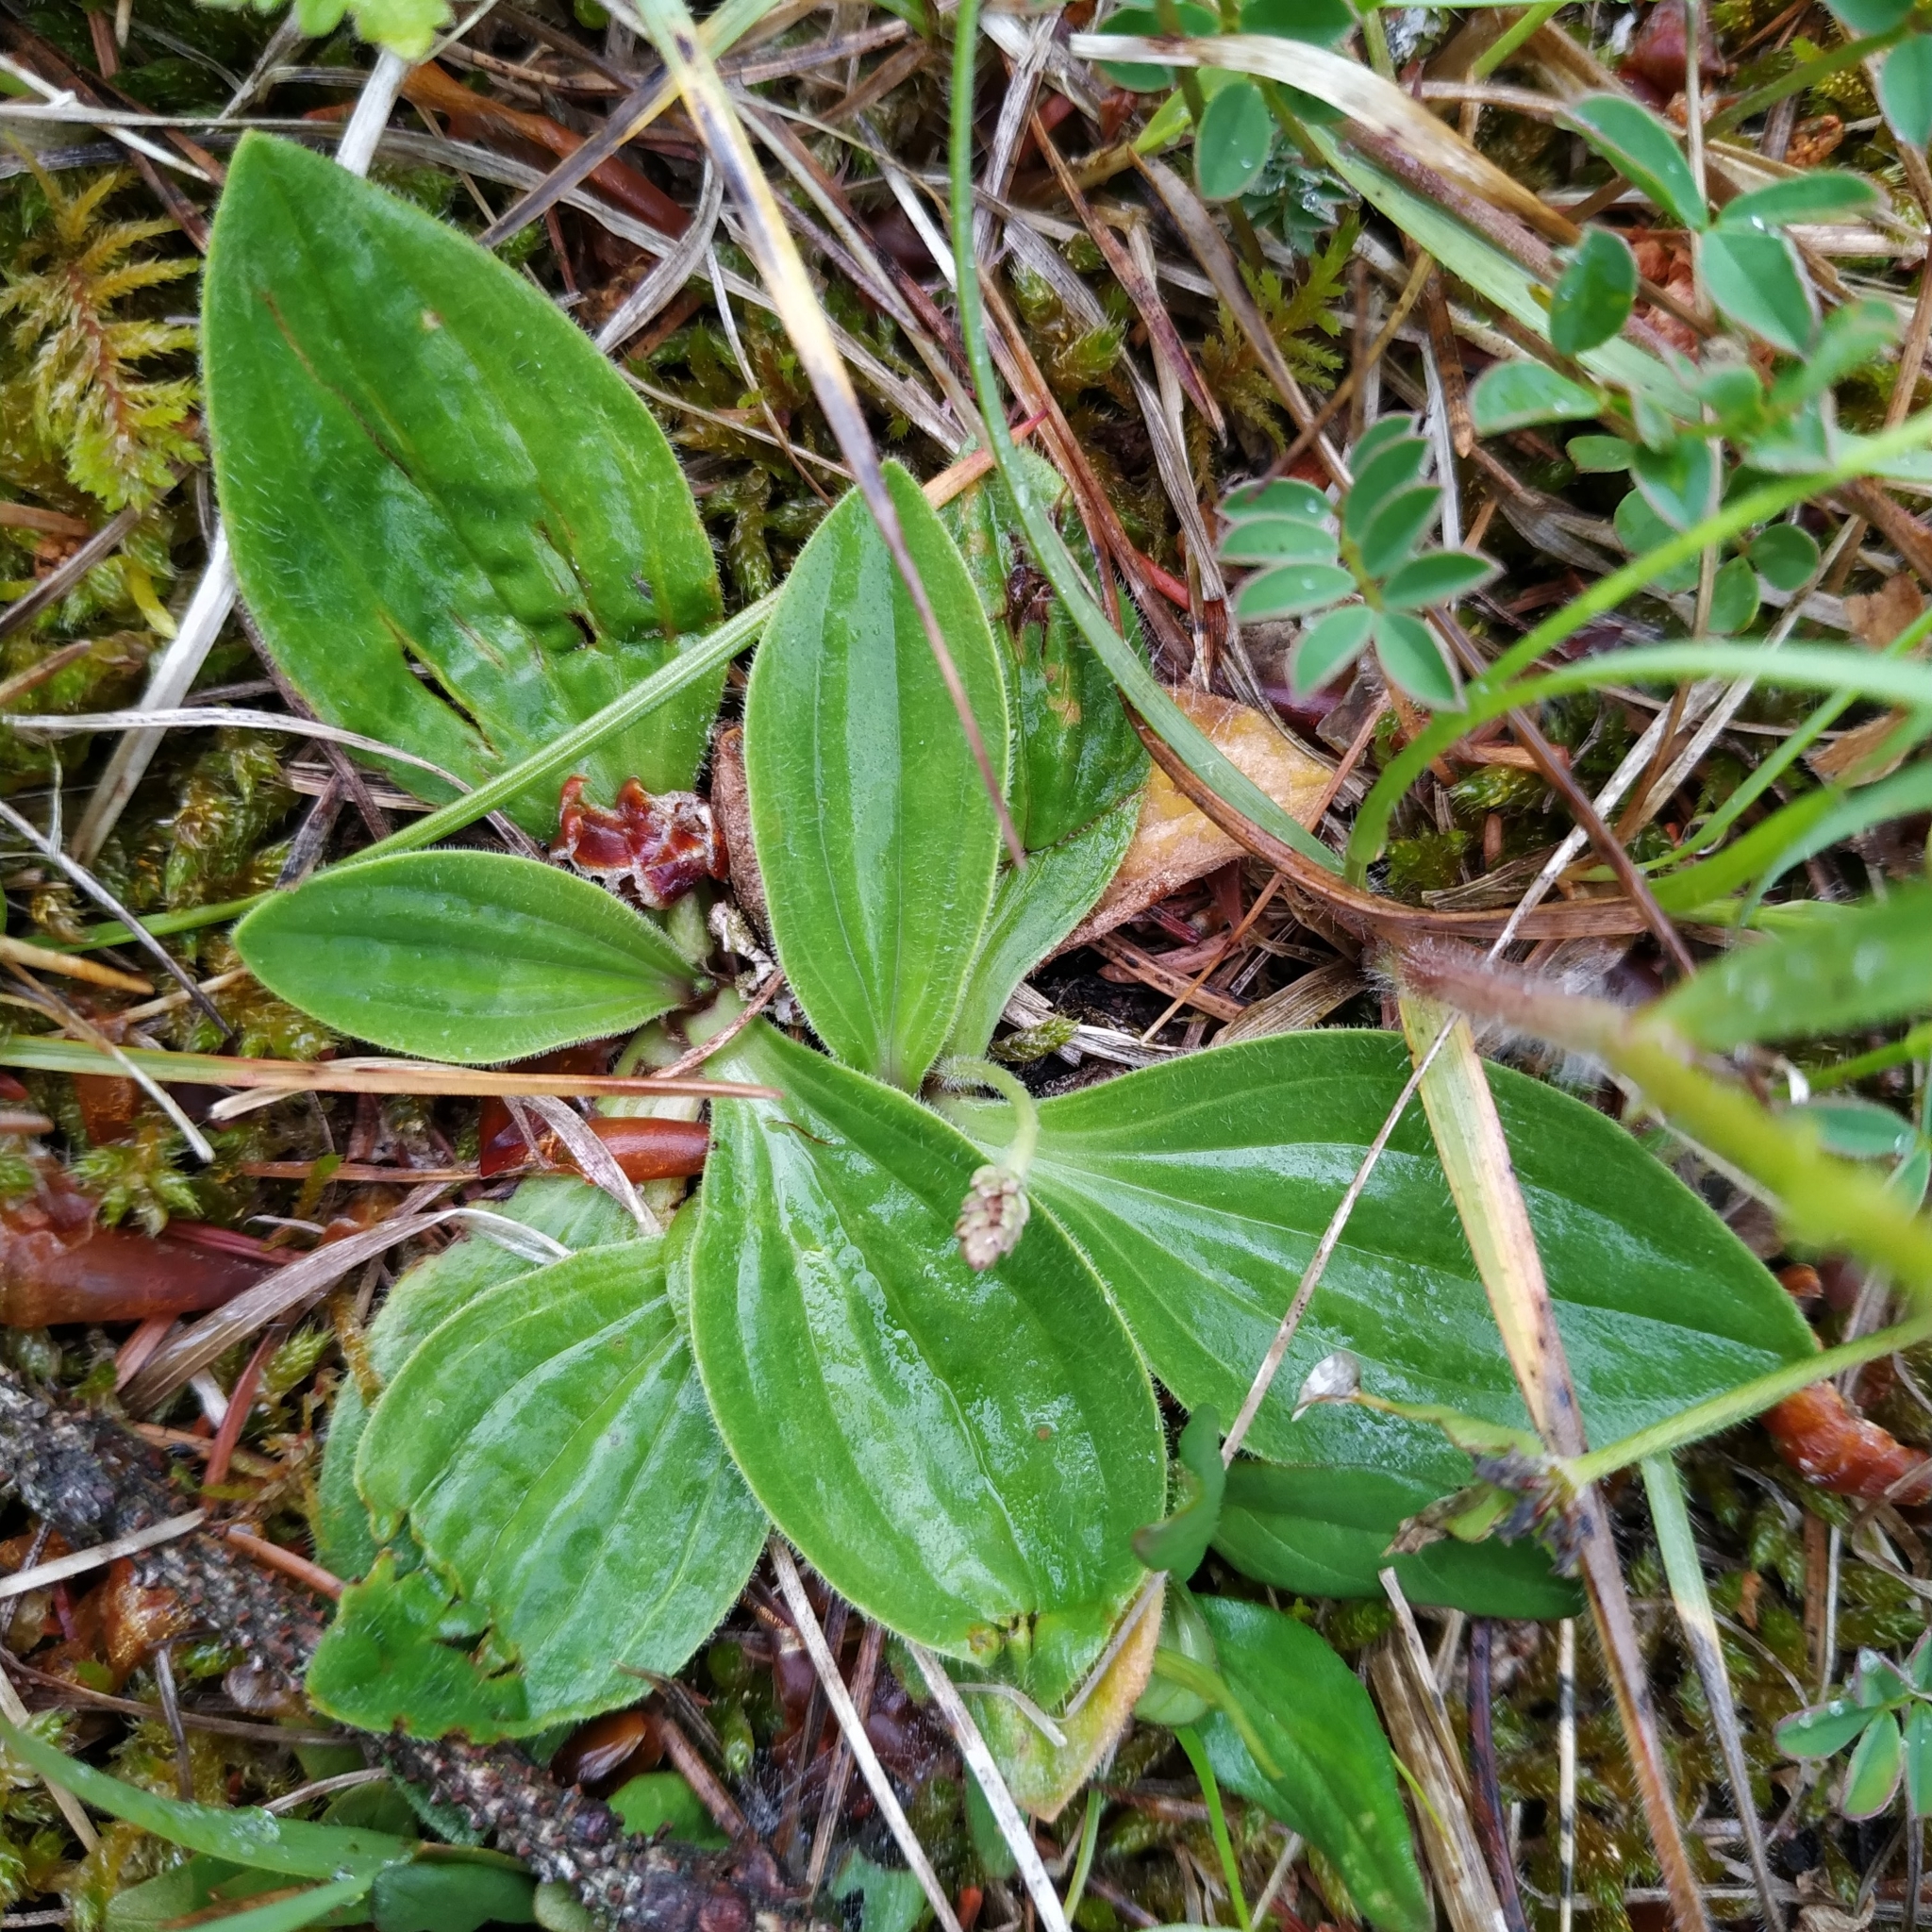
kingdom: Plantae
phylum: Tracheophyta
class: Magnoliopsida
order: Lamiales
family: Plantaginaceae
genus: Plantago
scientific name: Plantago media
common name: Hoary plantain
